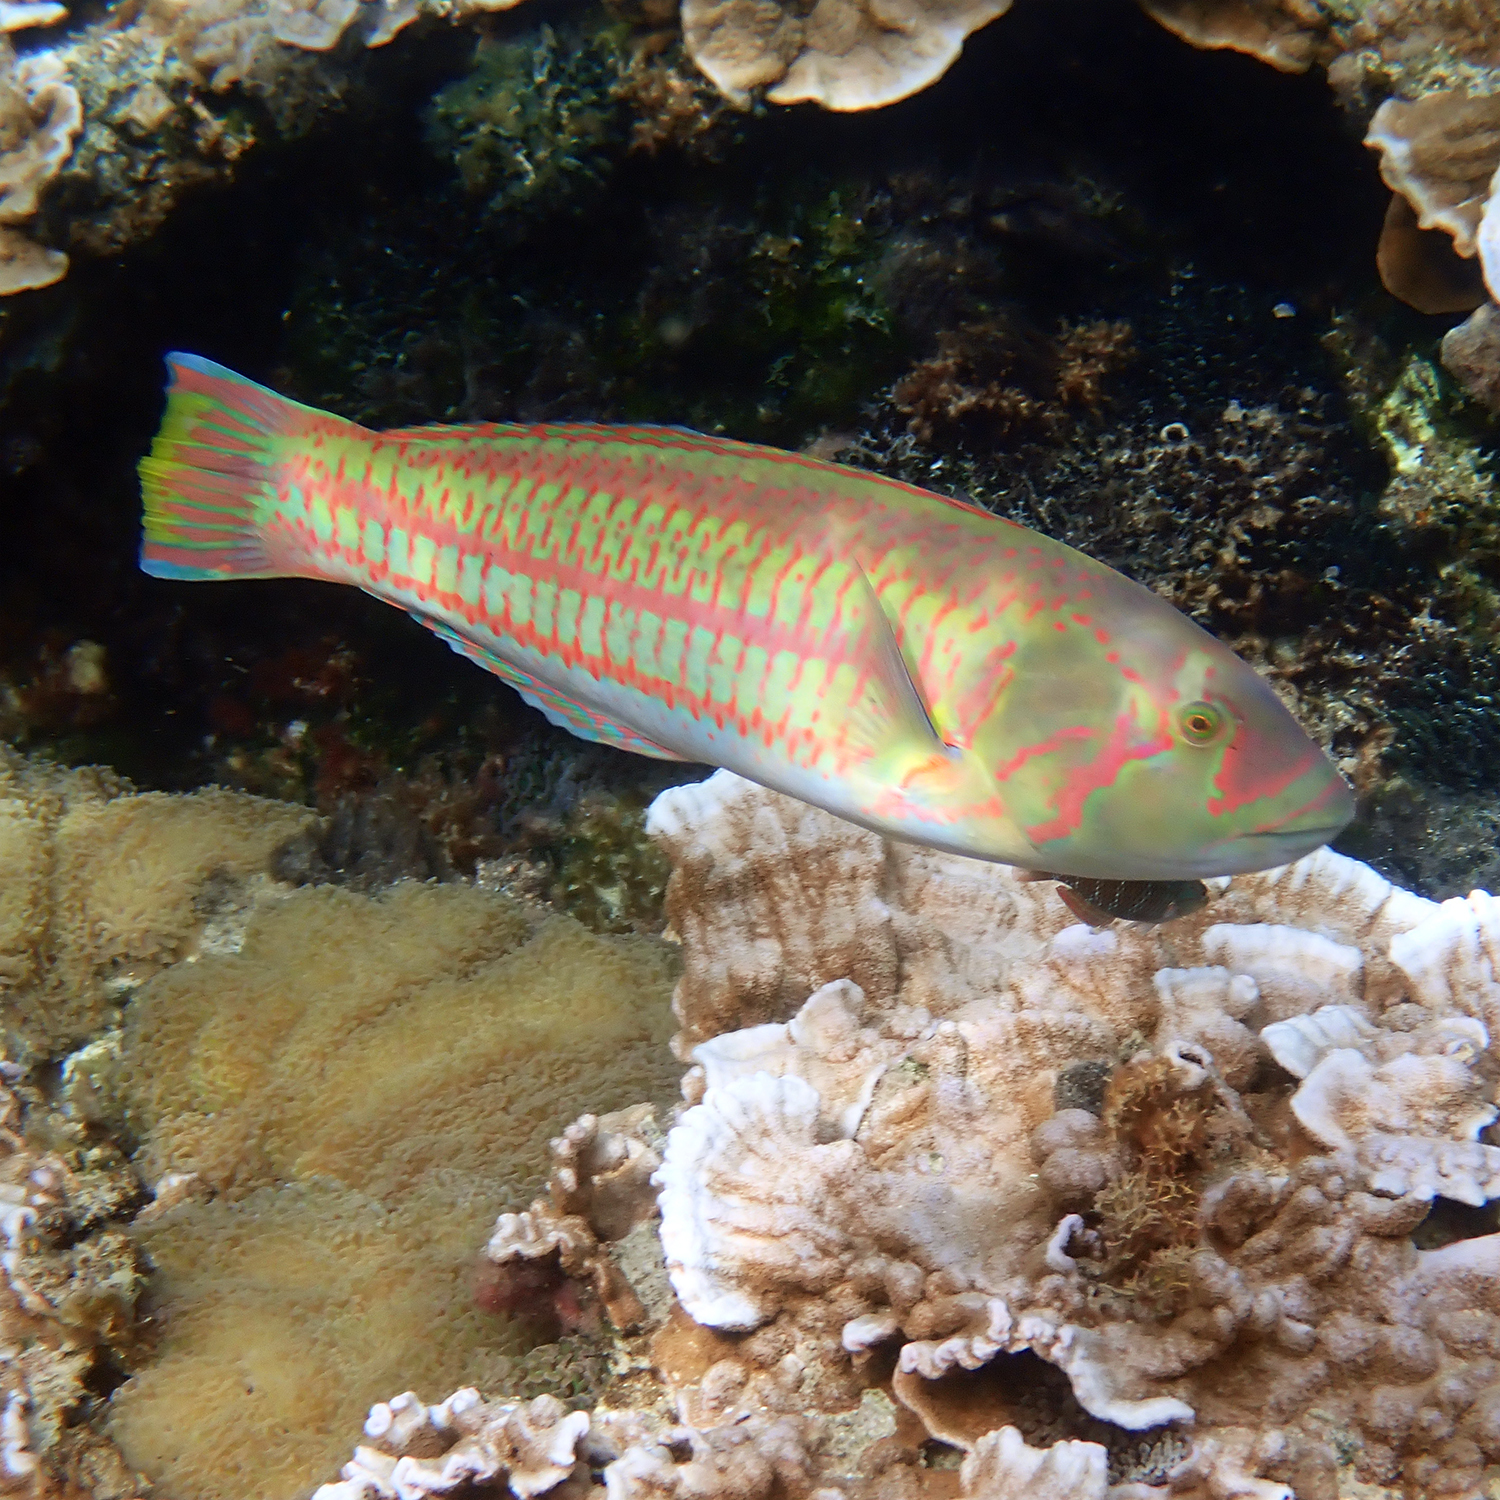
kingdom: Animalia
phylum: Chordata
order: Perciformes
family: Labridae
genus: Thalassoma
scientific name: Thalassoma purpureum
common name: Parrotfish
